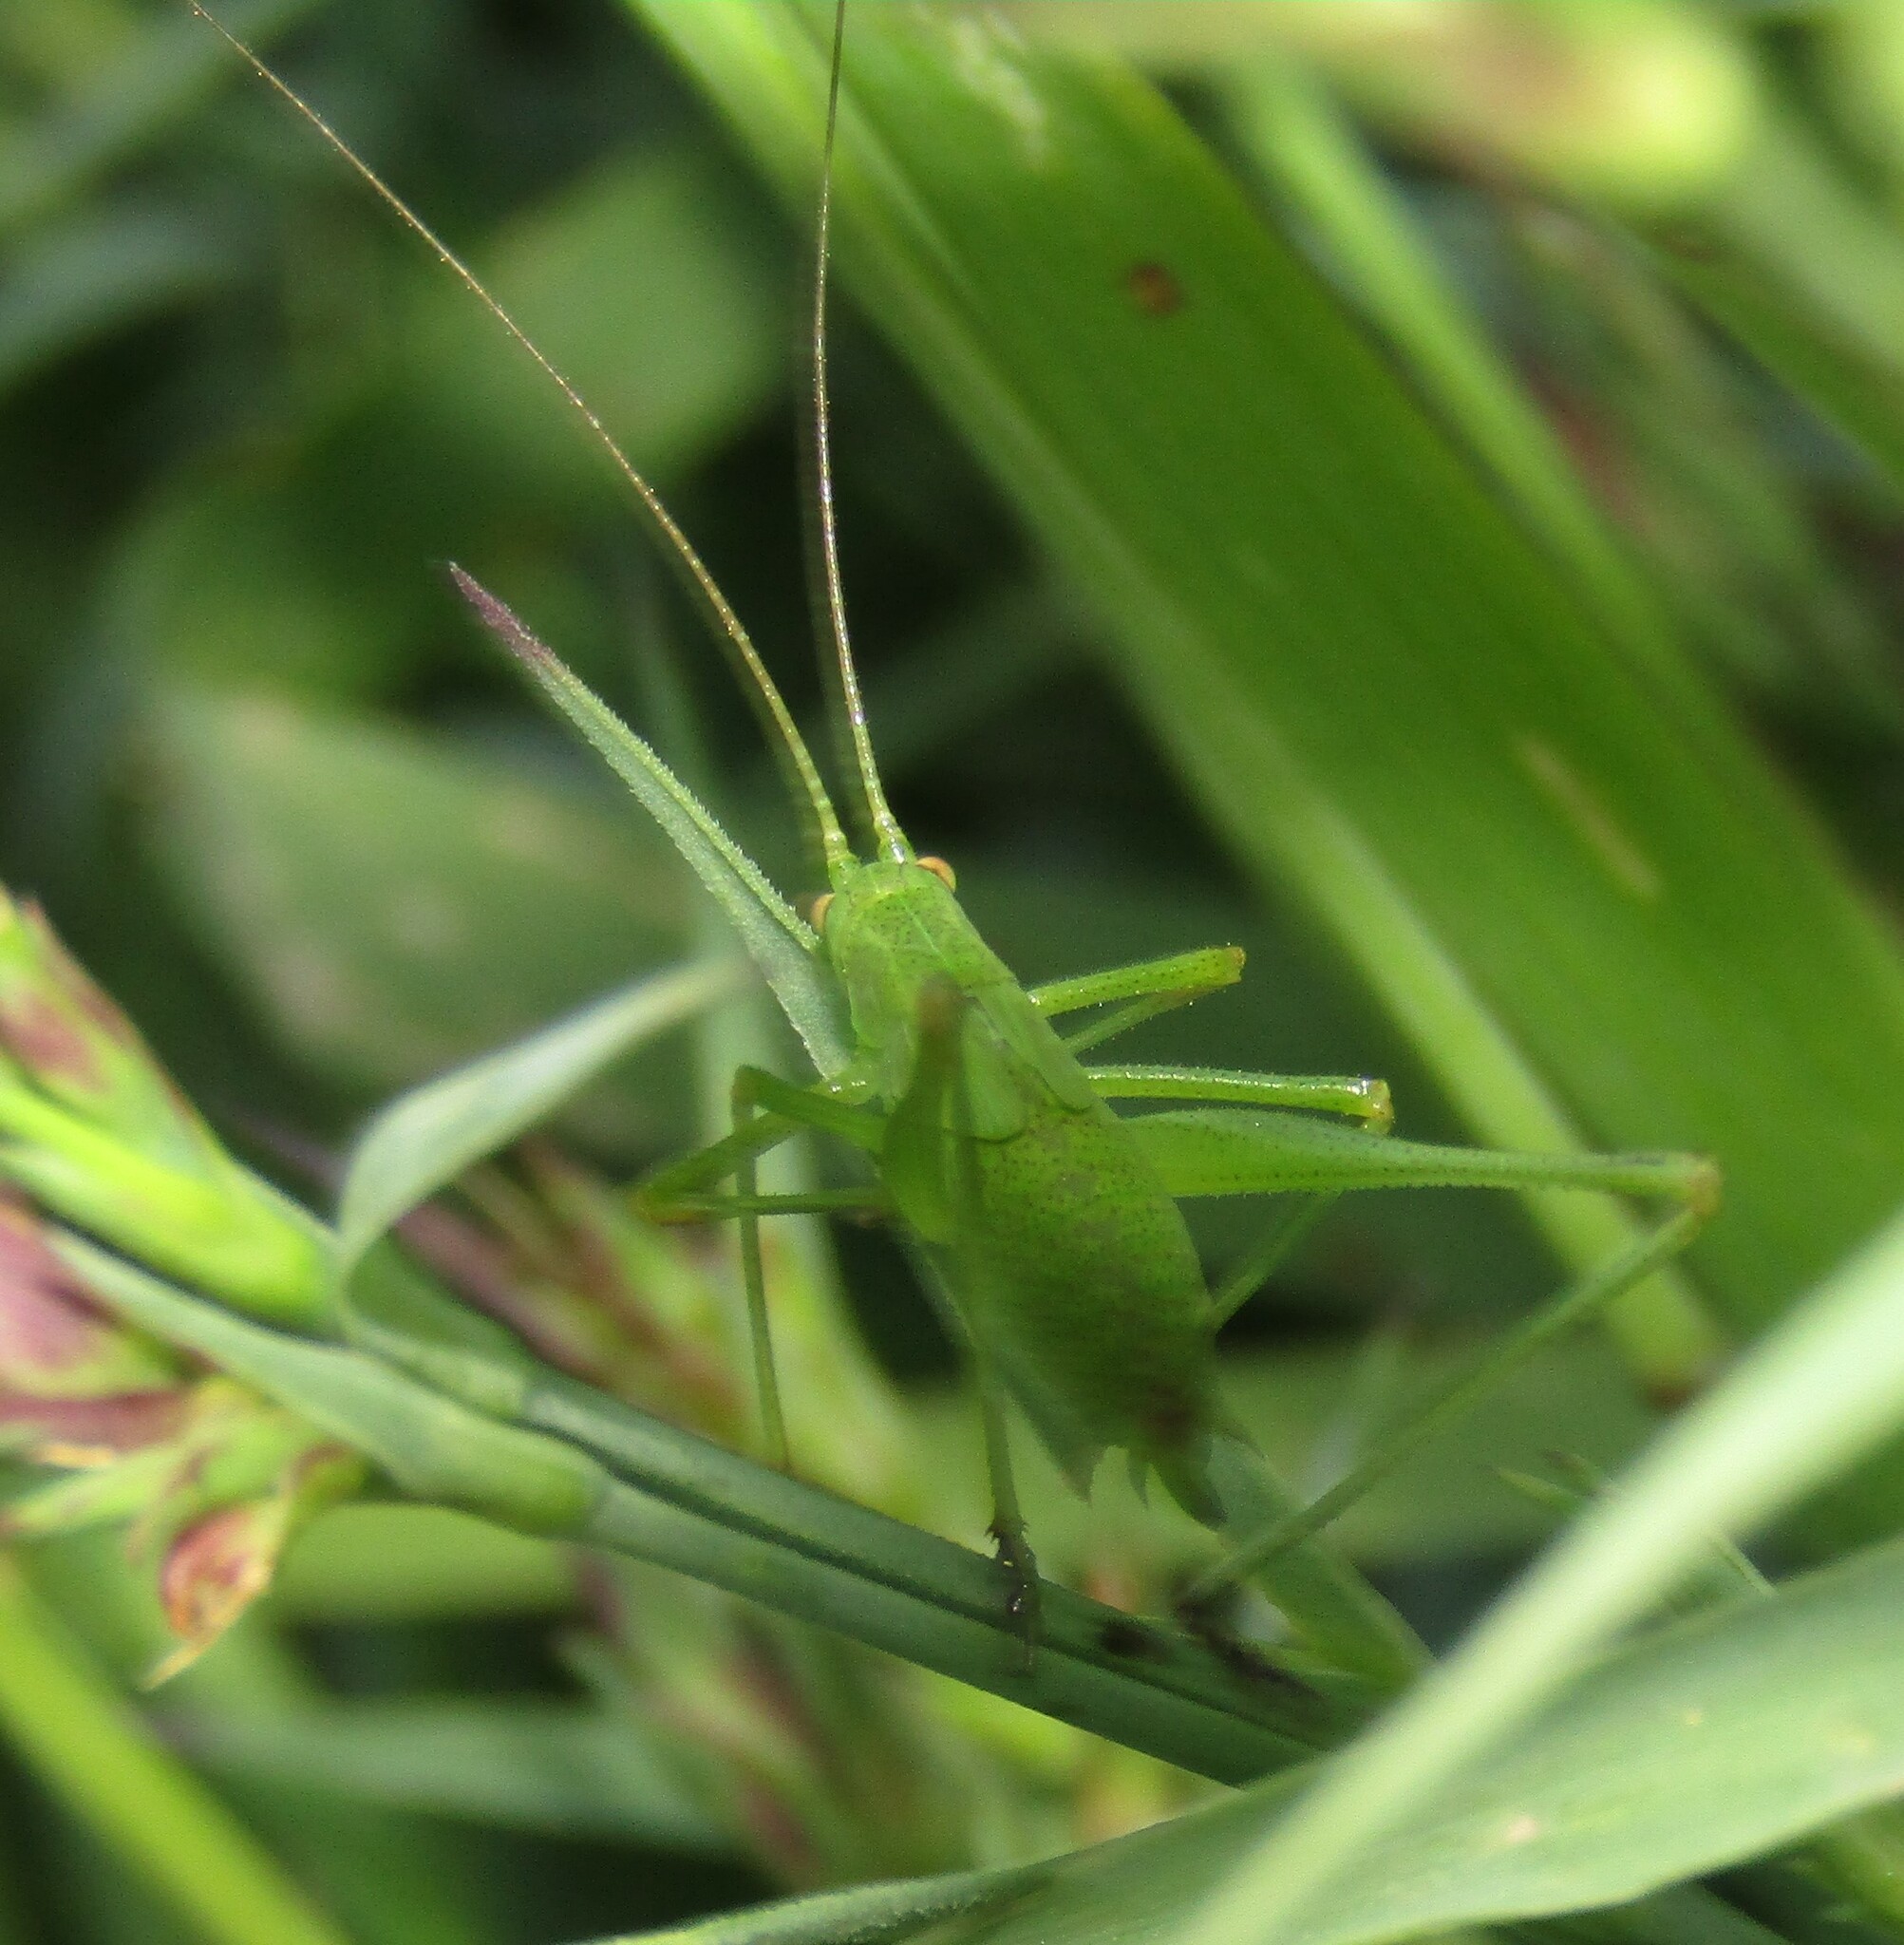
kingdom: Animalia
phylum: Arthropoda
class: Insecta
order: Orthoptera
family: Tettigoniidae
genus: Phaneroptera
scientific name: Phaneroptera falcata
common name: Sickle-bearing bush-cricket
